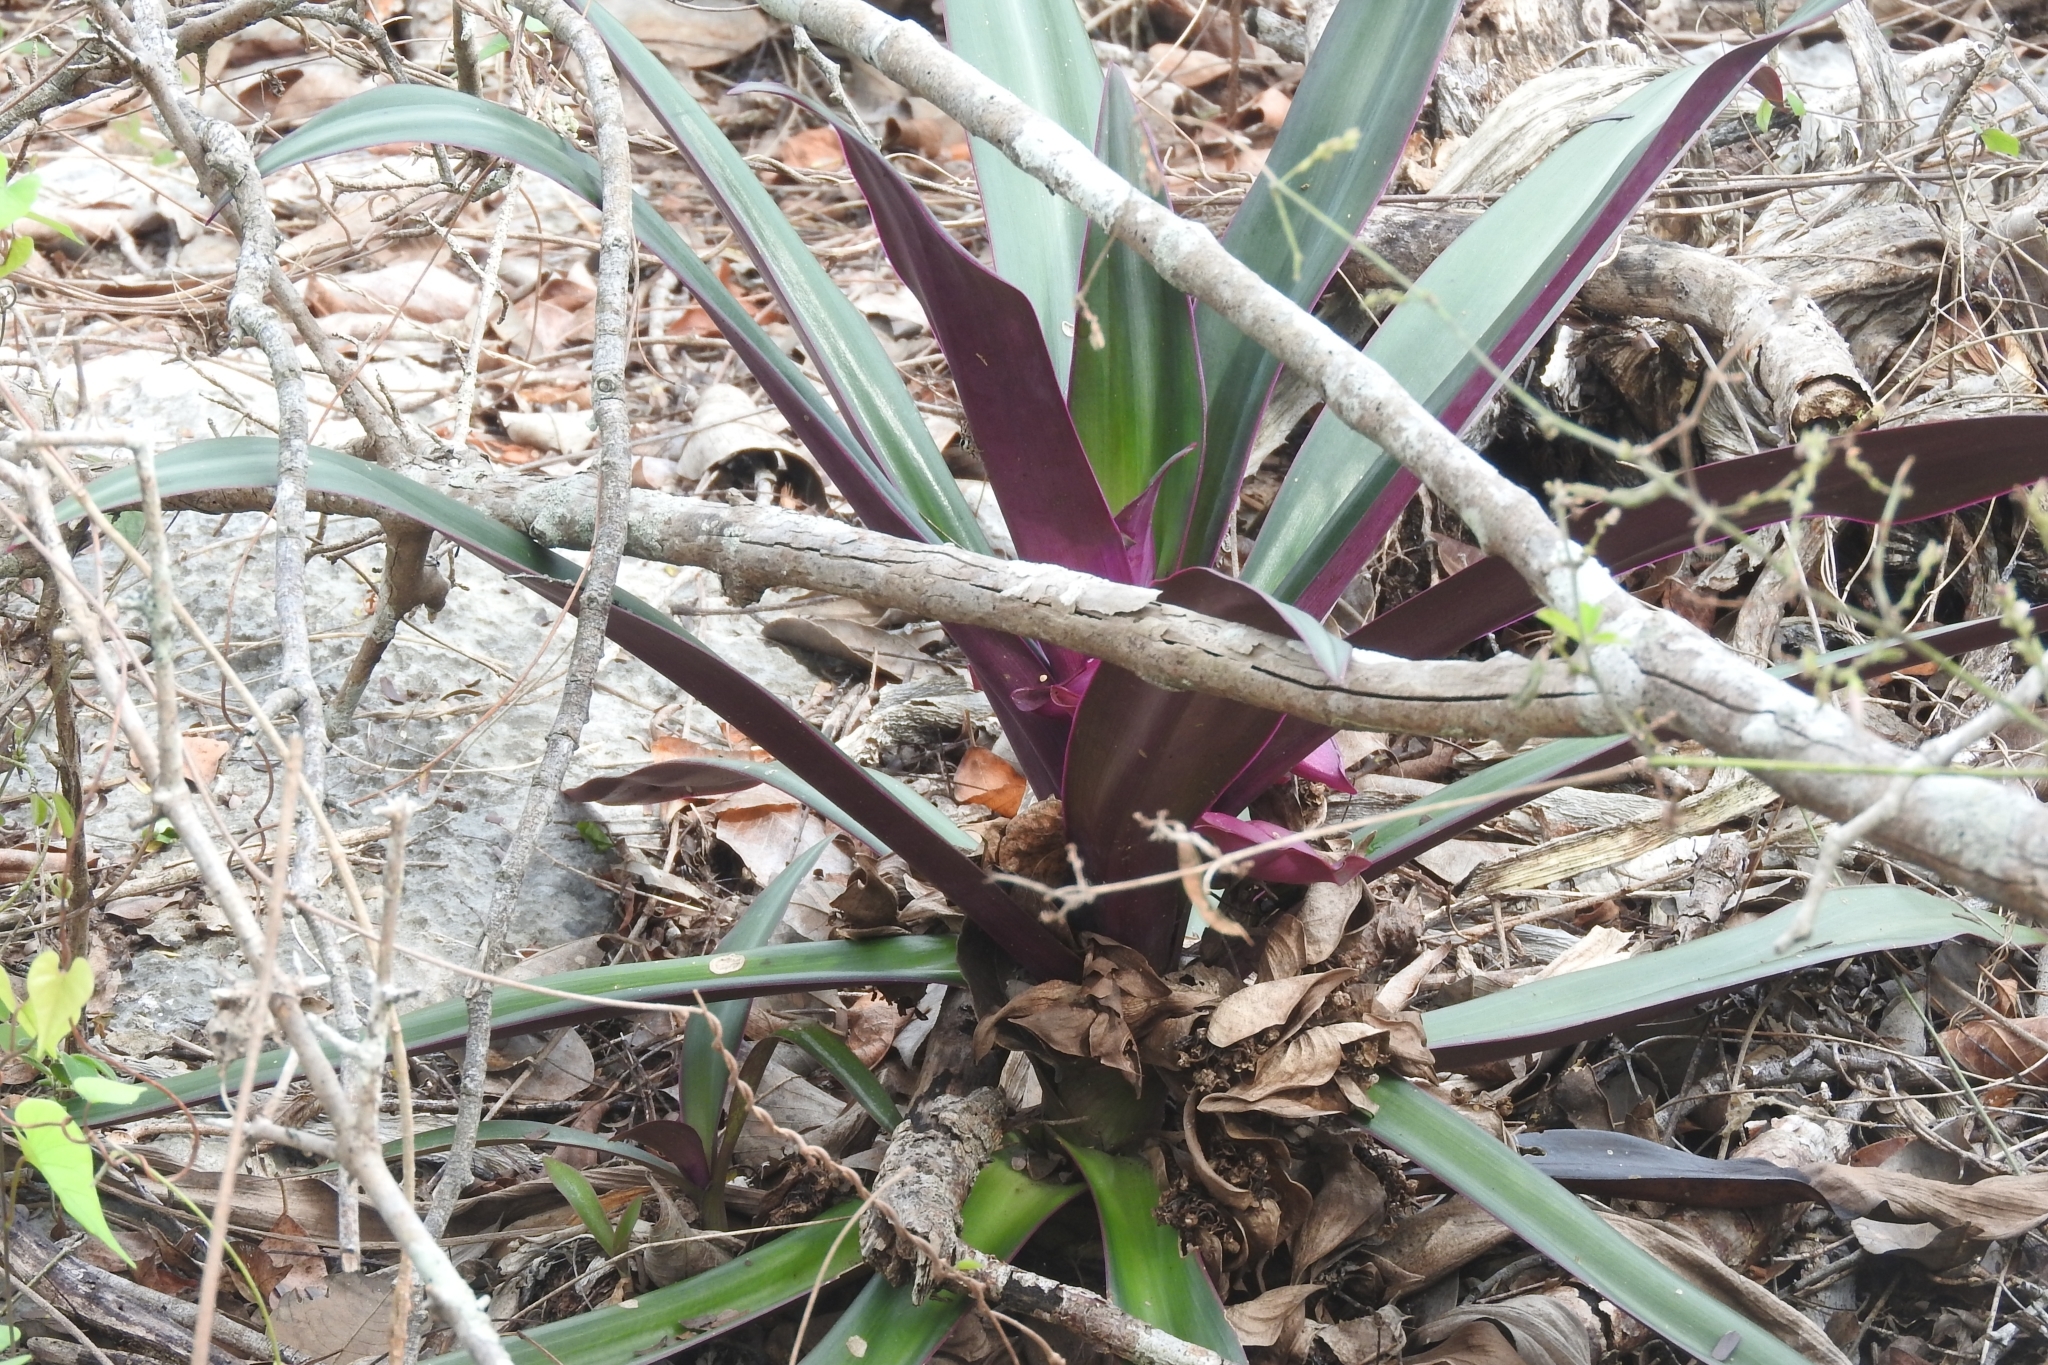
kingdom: Plantae
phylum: Tracheophyta
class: Liliopsida
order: Commelinales
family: Commelinaceae
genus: Tradescantia
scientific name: Tradescantia spathacea
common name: Boatlily
